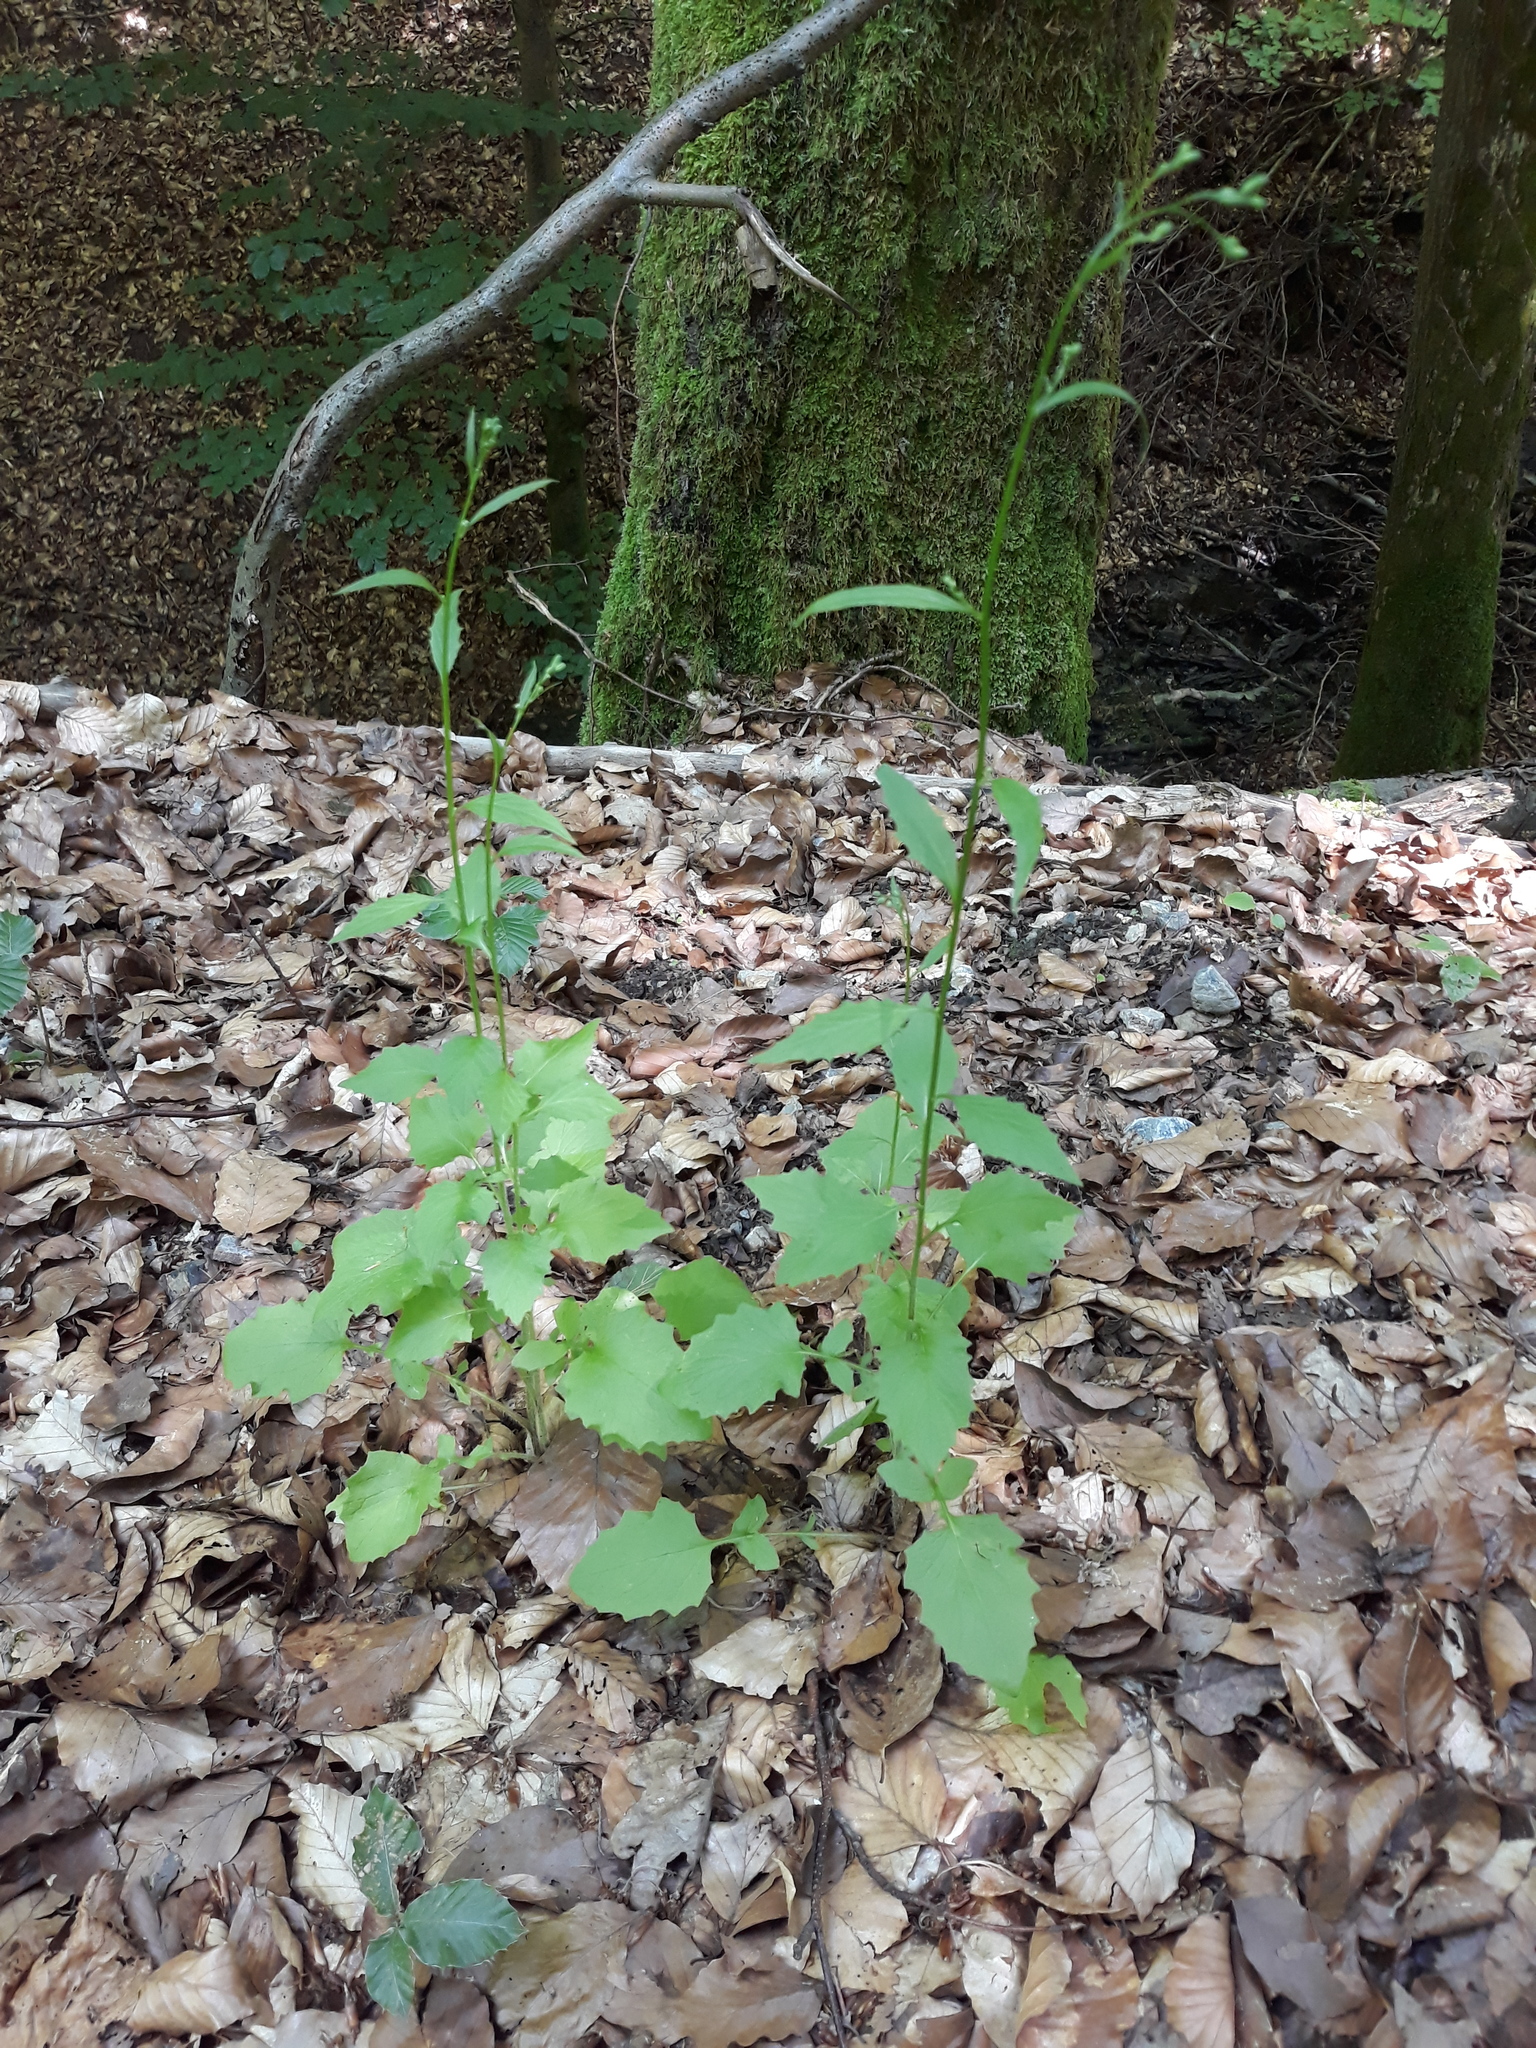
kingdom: Plantae
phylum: Tracheophyta
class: Magnoliopsida
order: Asterales
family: Asteraceae
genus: Lapsana
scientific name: Lapsana communis
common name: Nipplewort
